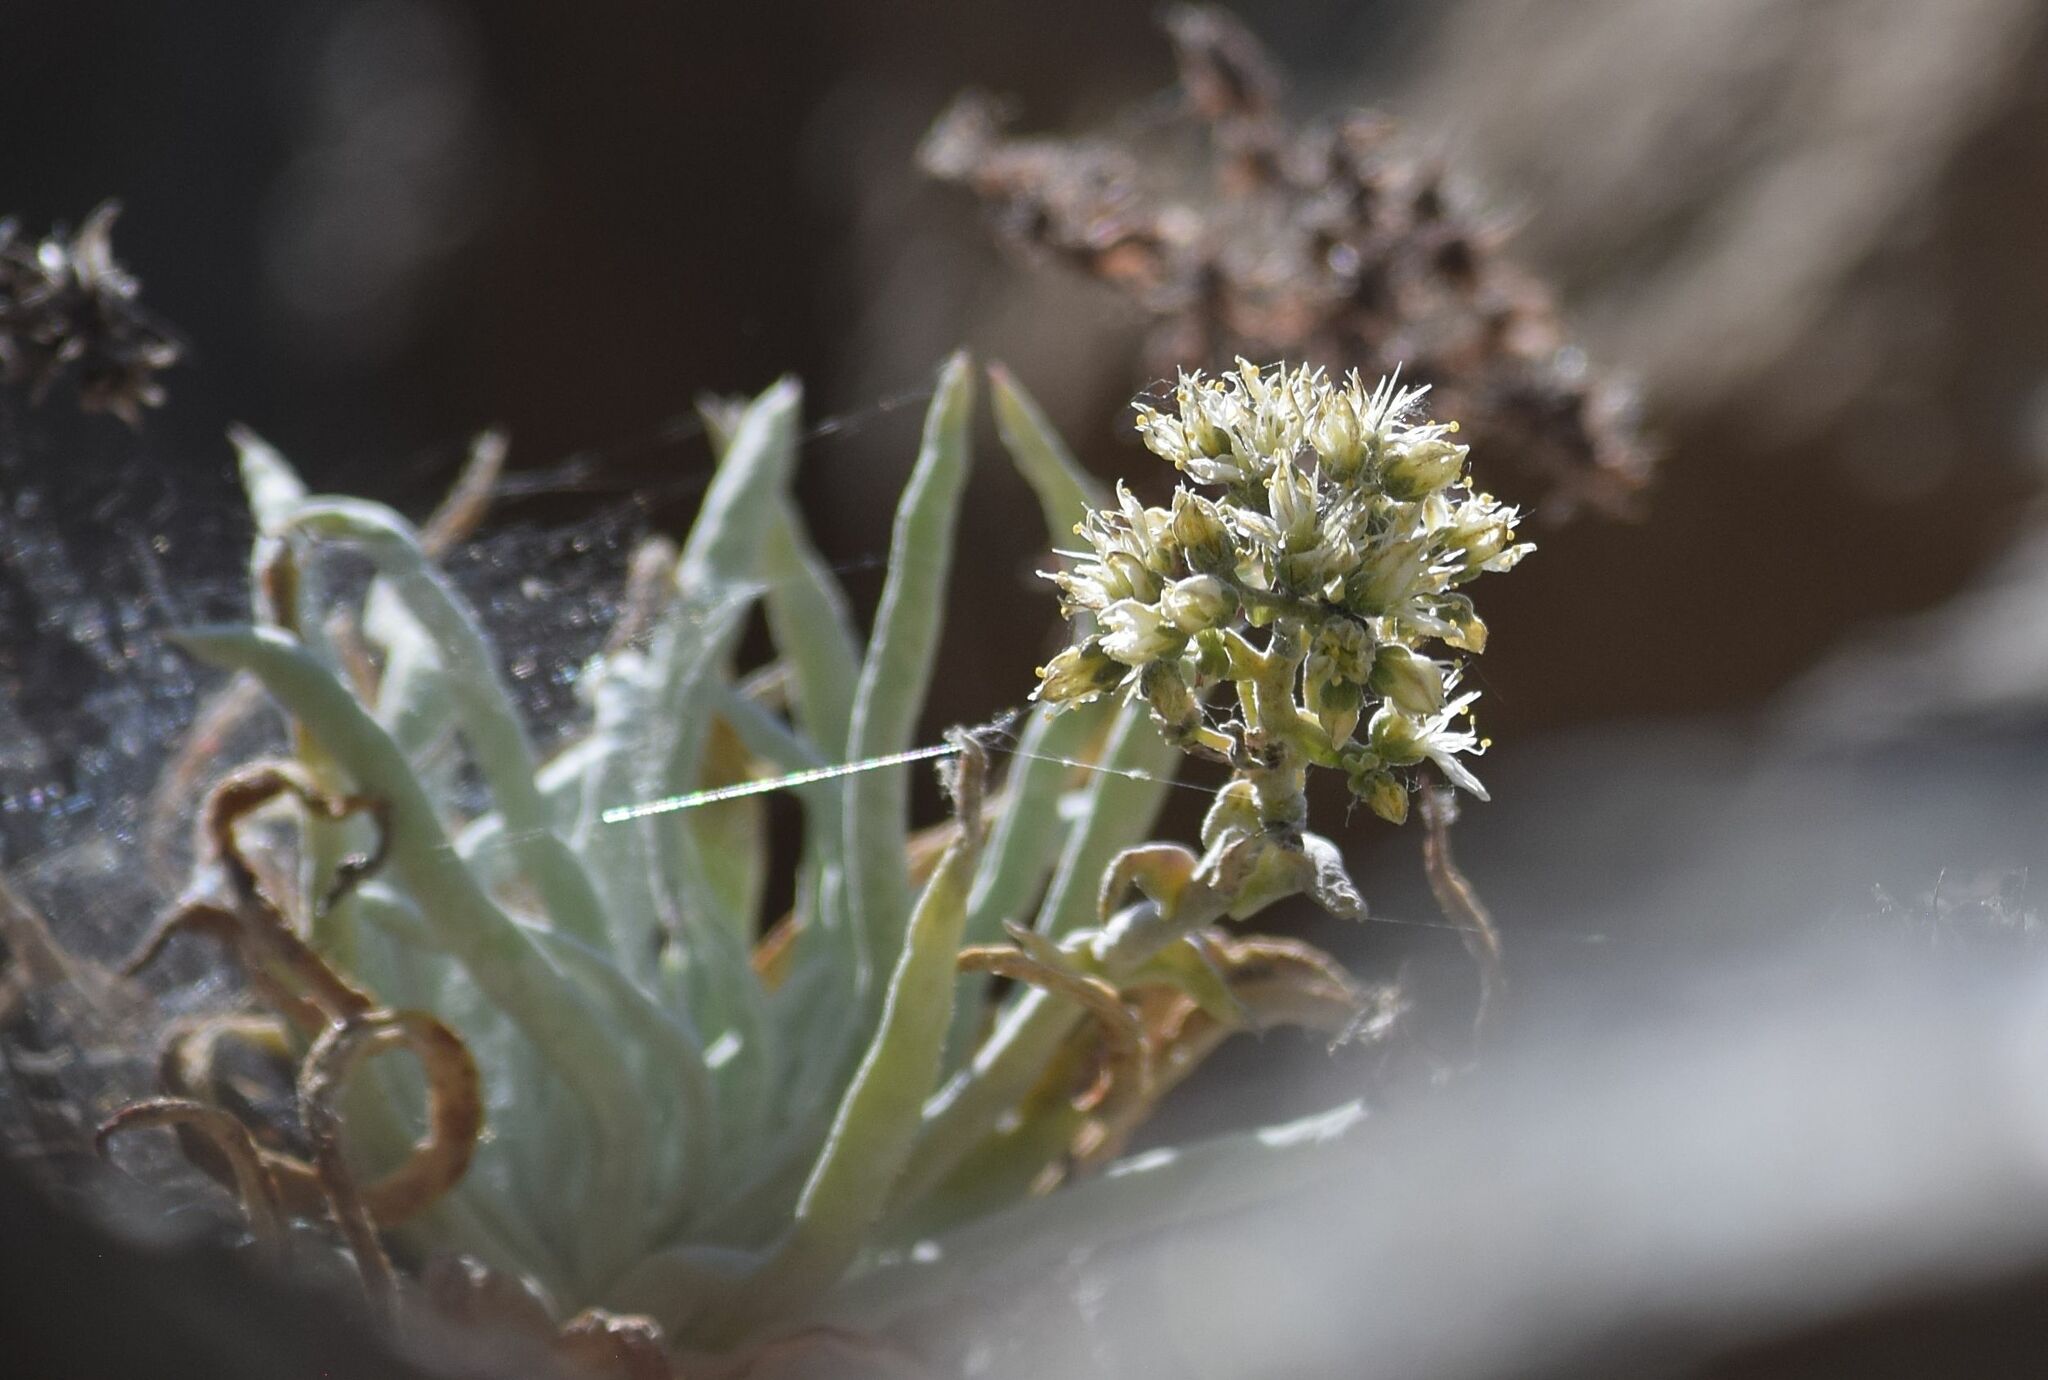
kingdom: Plantae
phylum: Tracheophyta
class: Magnoliopsida
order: Saxifragales
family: Crassulaceae
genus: Dudleya
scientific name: Dudleya densiflora
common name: San gabriel mountains dudleya
